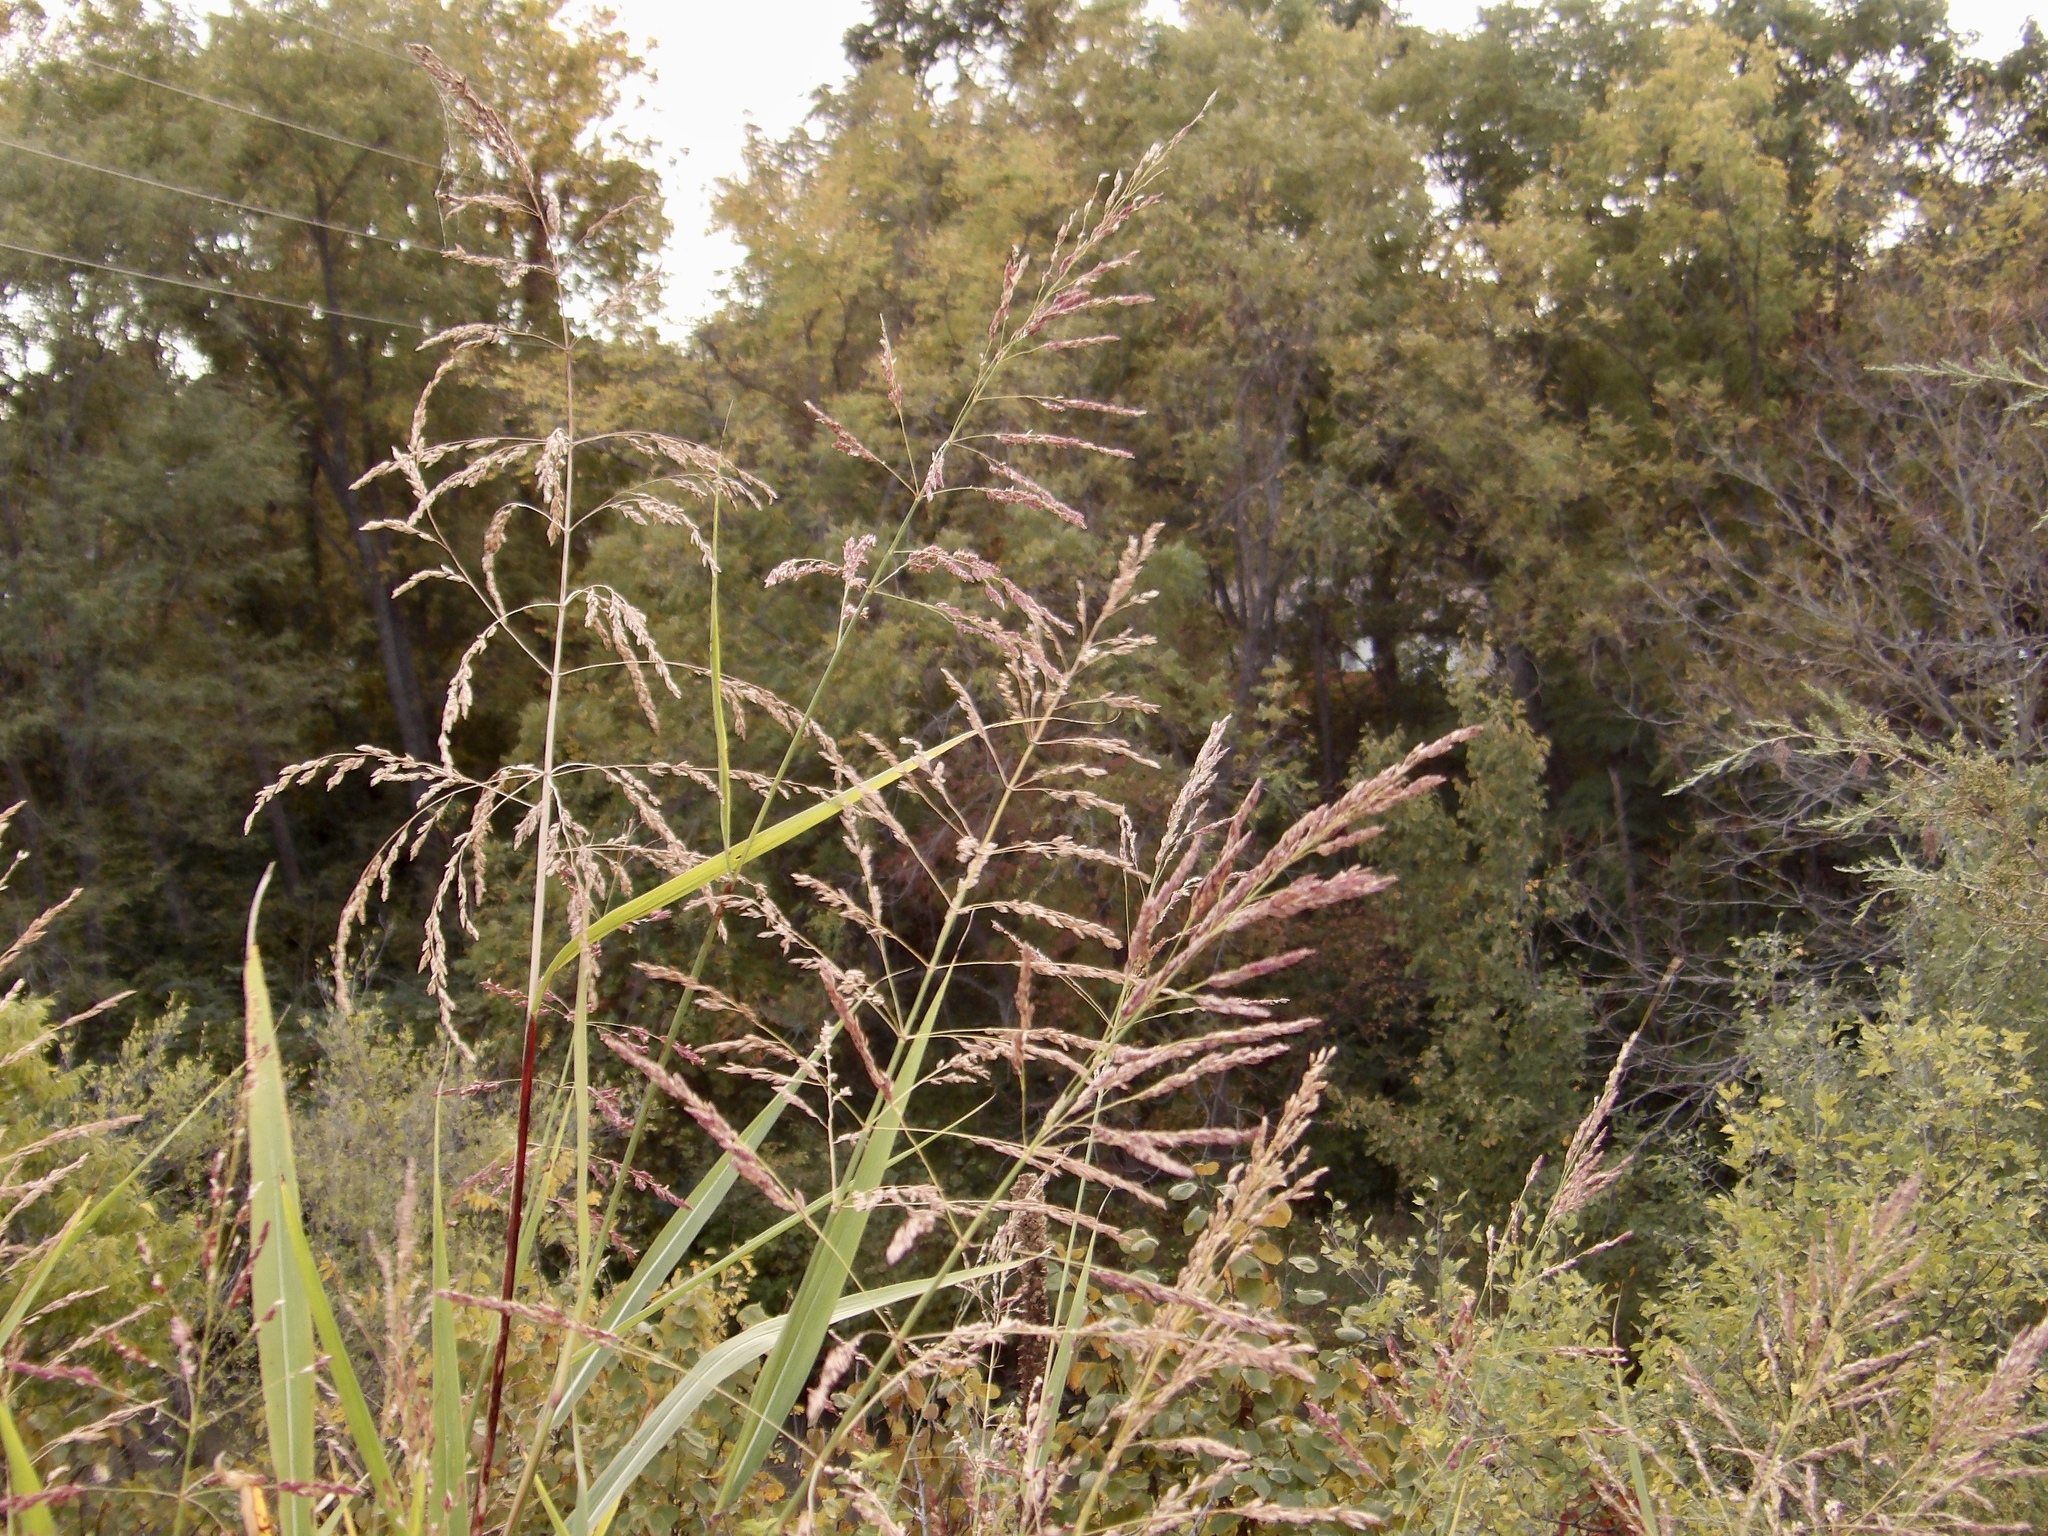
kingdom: Plantae
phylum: Tracheophyta
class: Liliopsida
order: Poales
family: Poaceae
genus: Sorghum
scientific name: Sorghum halepense
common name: Johnson-grass
